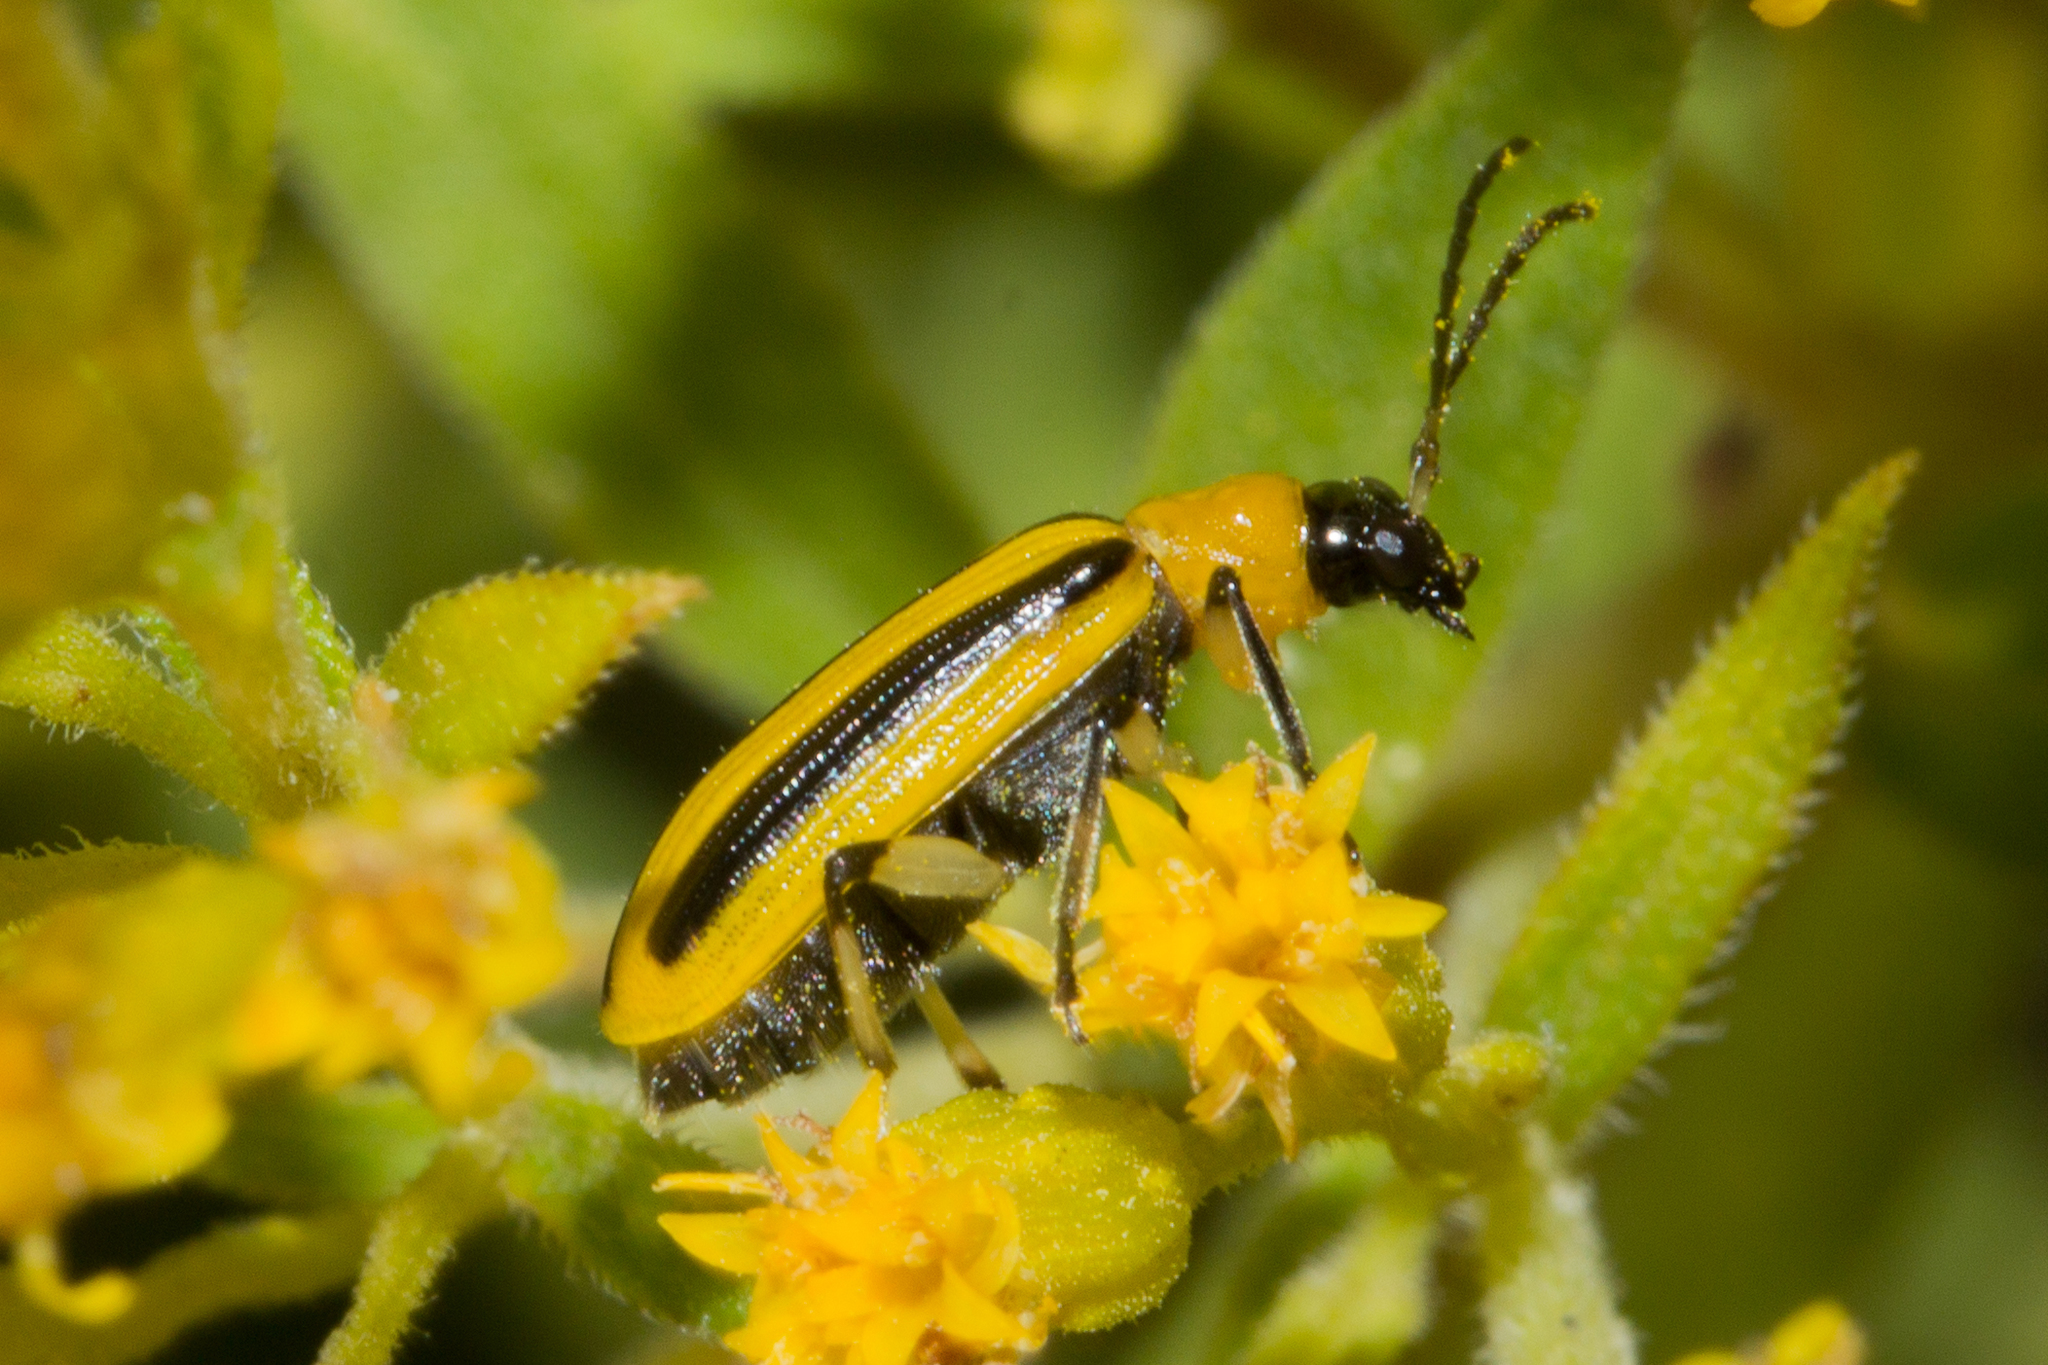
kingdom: Animalia
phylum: Arthropoda
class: Insecta
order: Coleoptera
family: Chrysomelidae
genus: Acalymma
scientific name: Acalymma vittatum
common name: Striped cucumber beetle
